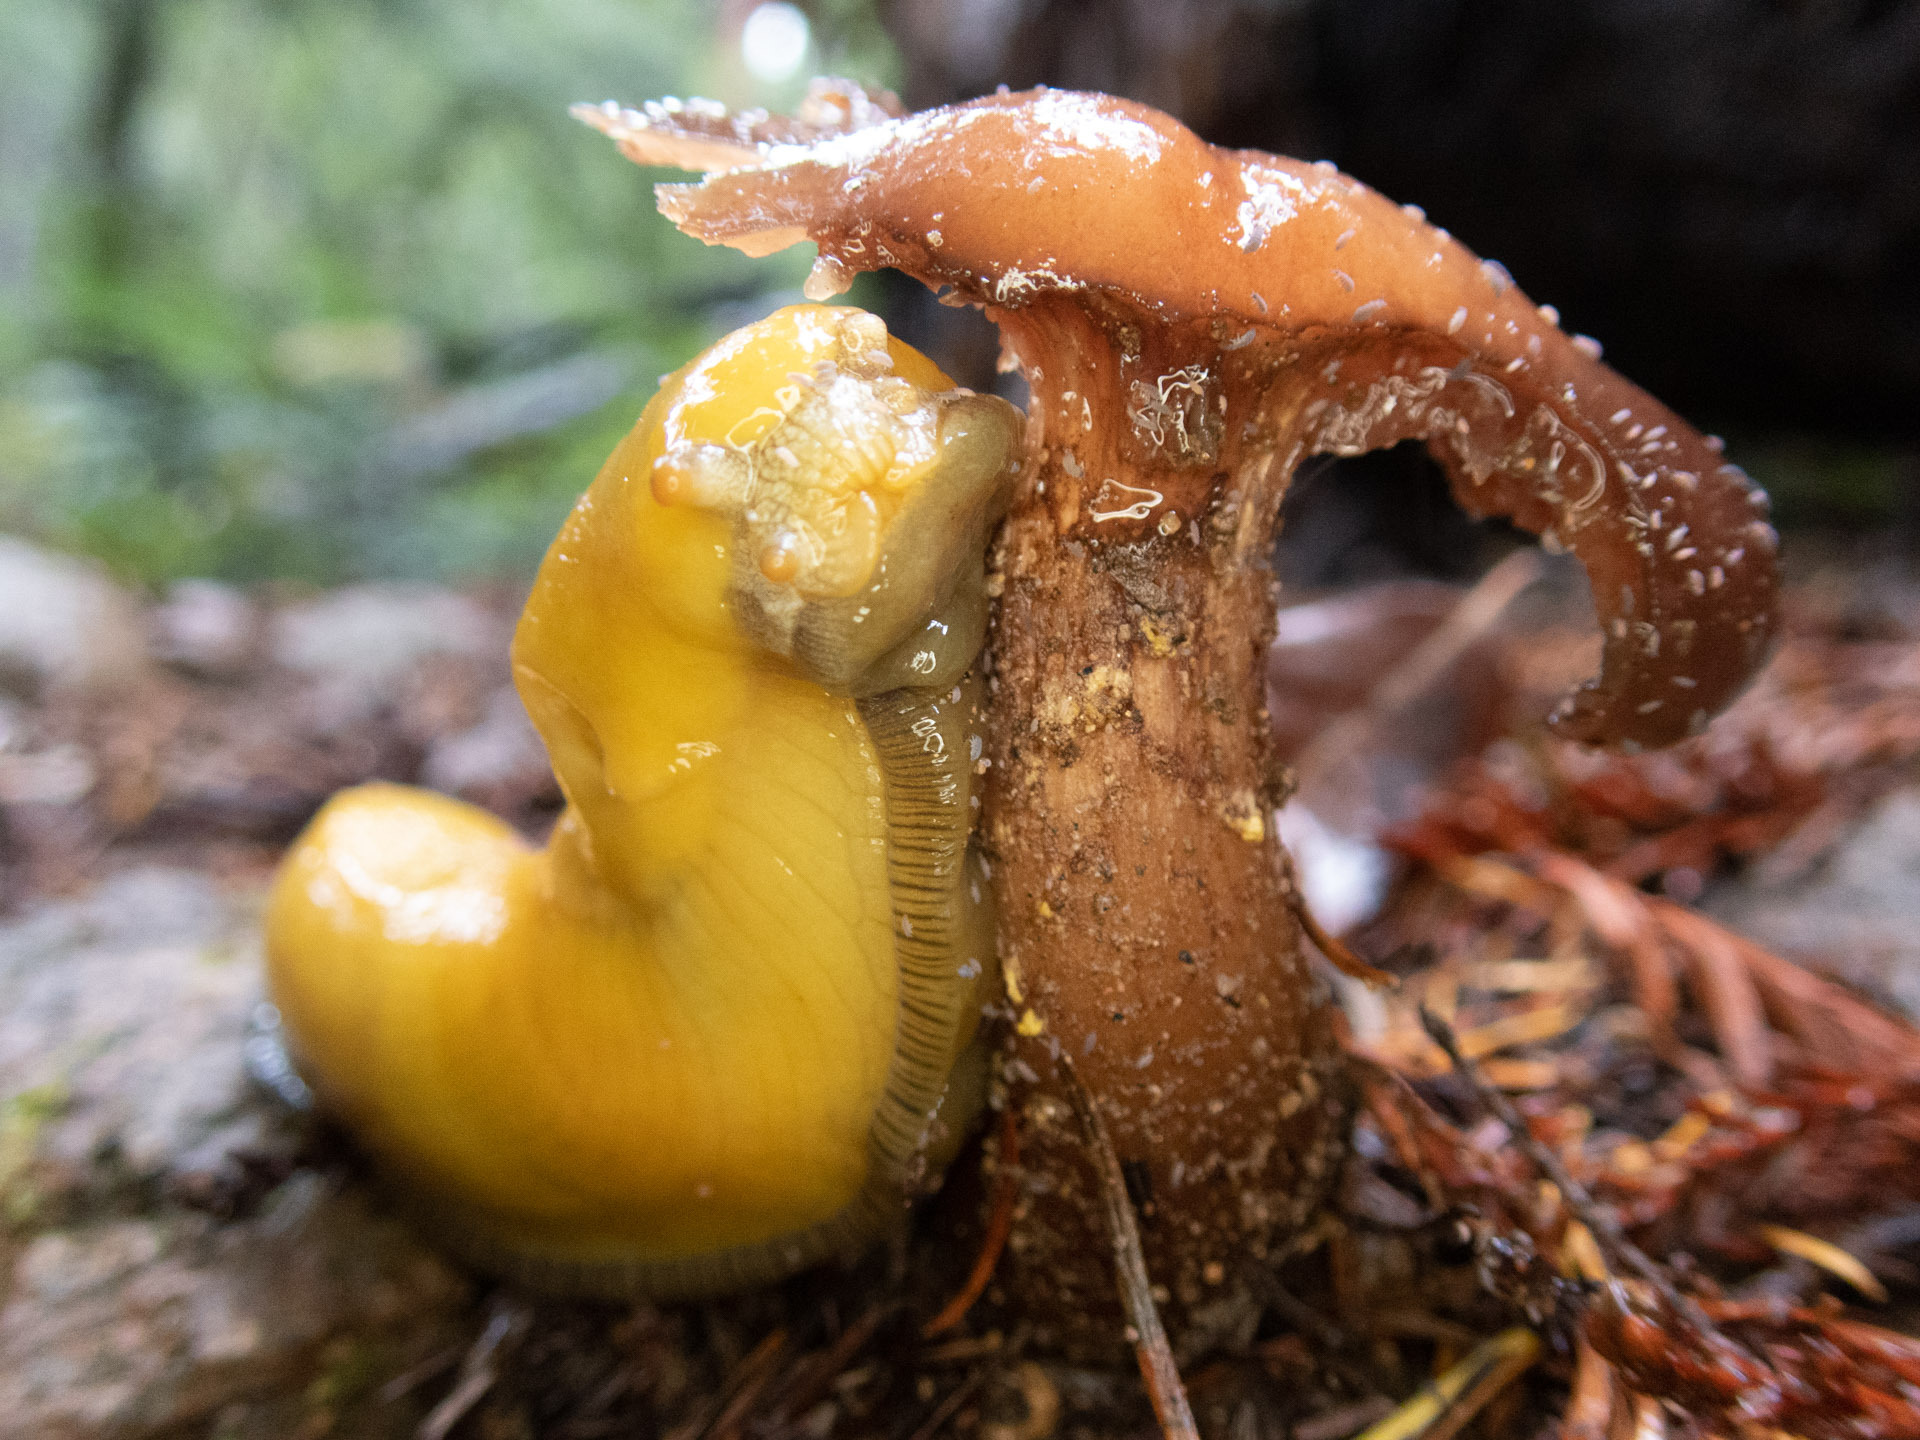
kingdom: Animalia
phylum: Mollusca
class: Gastropoda
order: Stylommatophora
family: Ariolimacidae
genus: Ariolimax
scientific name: Ariolimax dolichophallus
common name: Slender banana slug
